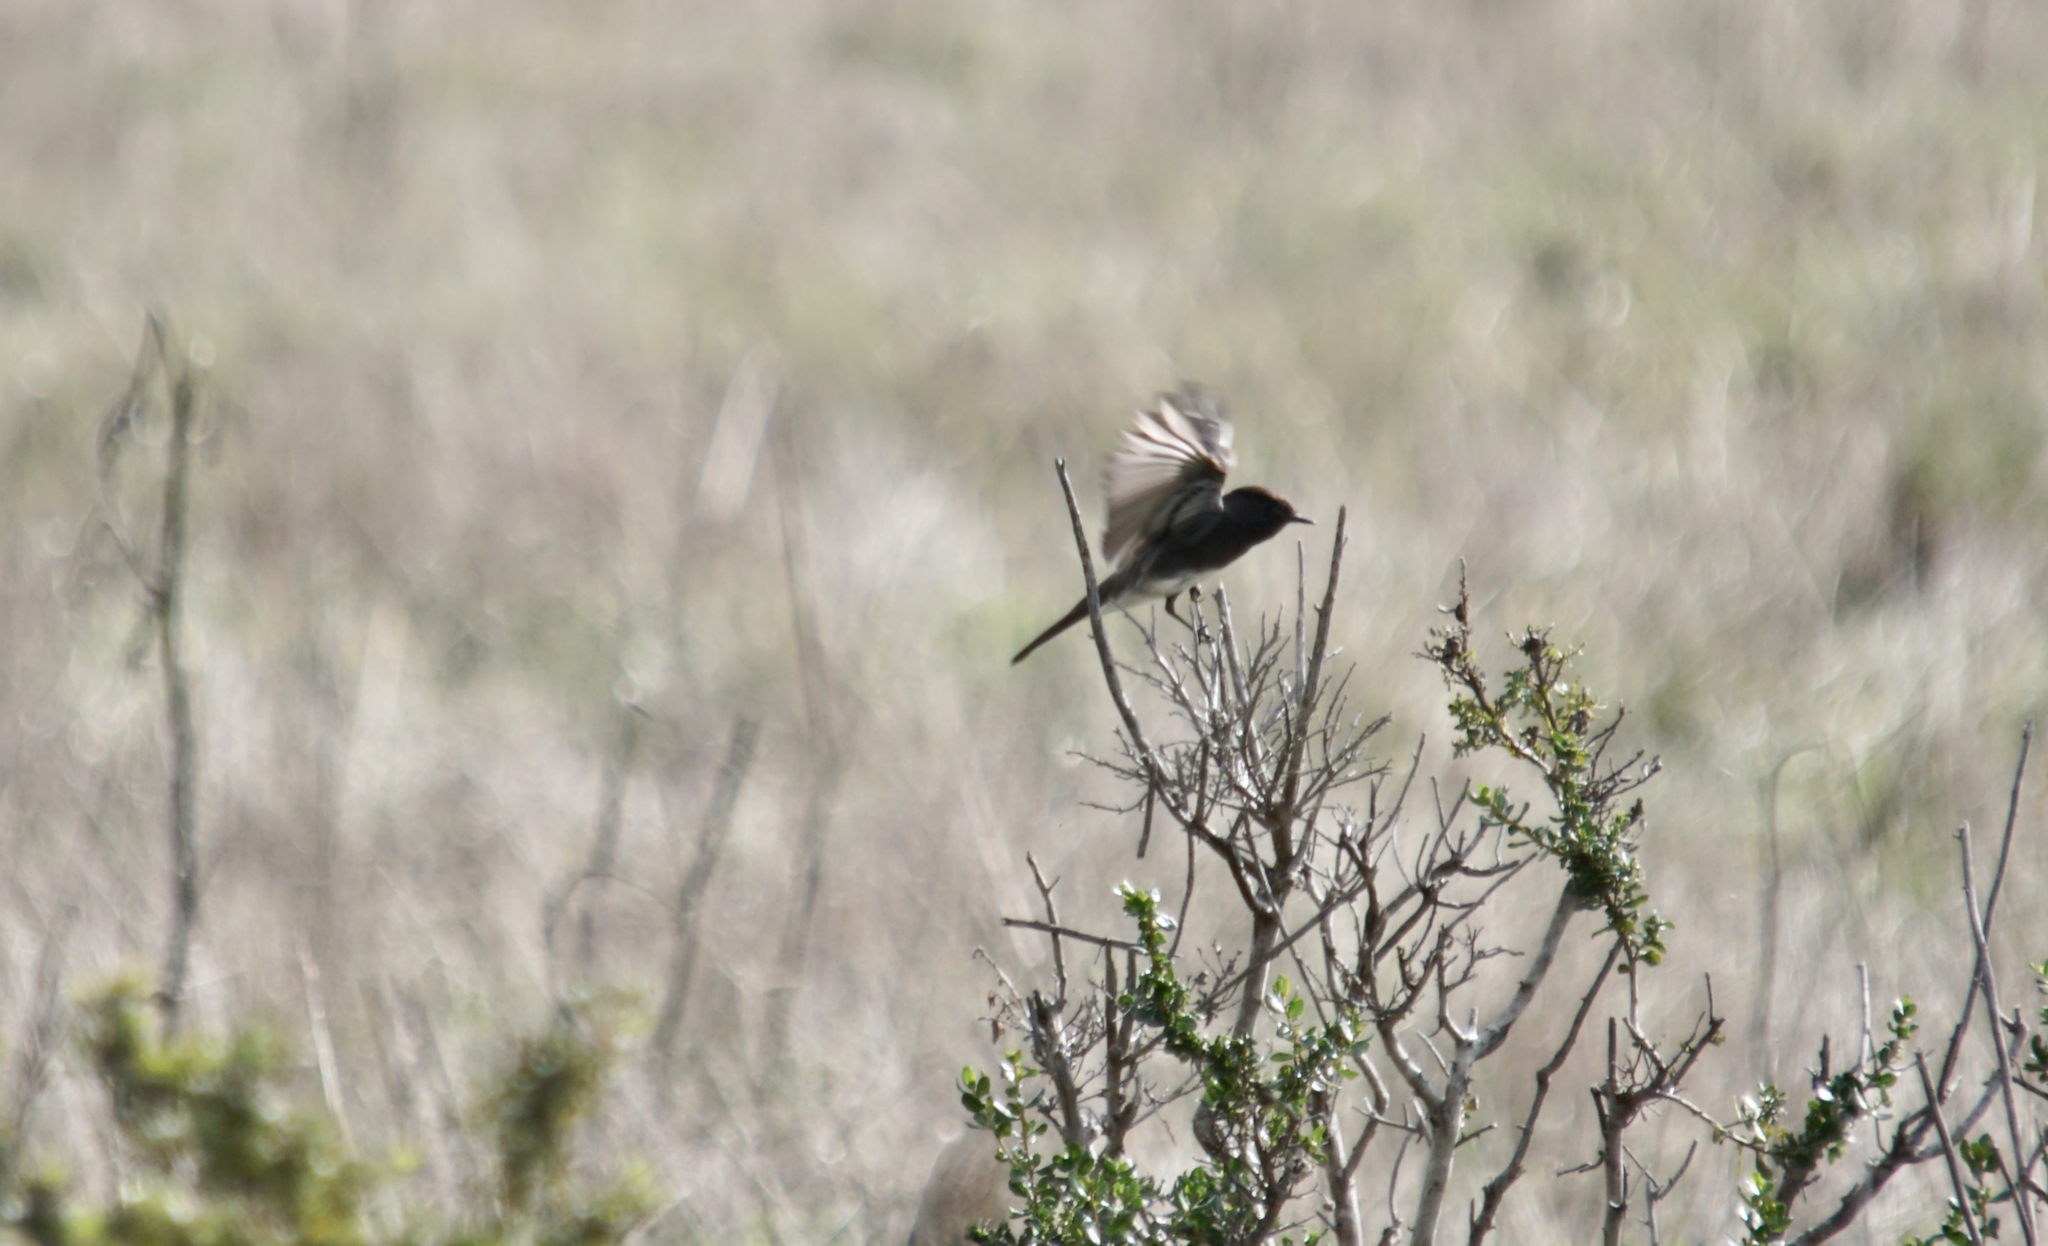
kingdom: Animalia
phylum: Chordata
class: Aves
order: Passeriformes
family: Tyrannidae
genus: Sayornis
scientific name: Sayornis nigricans
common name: Black phoebe
